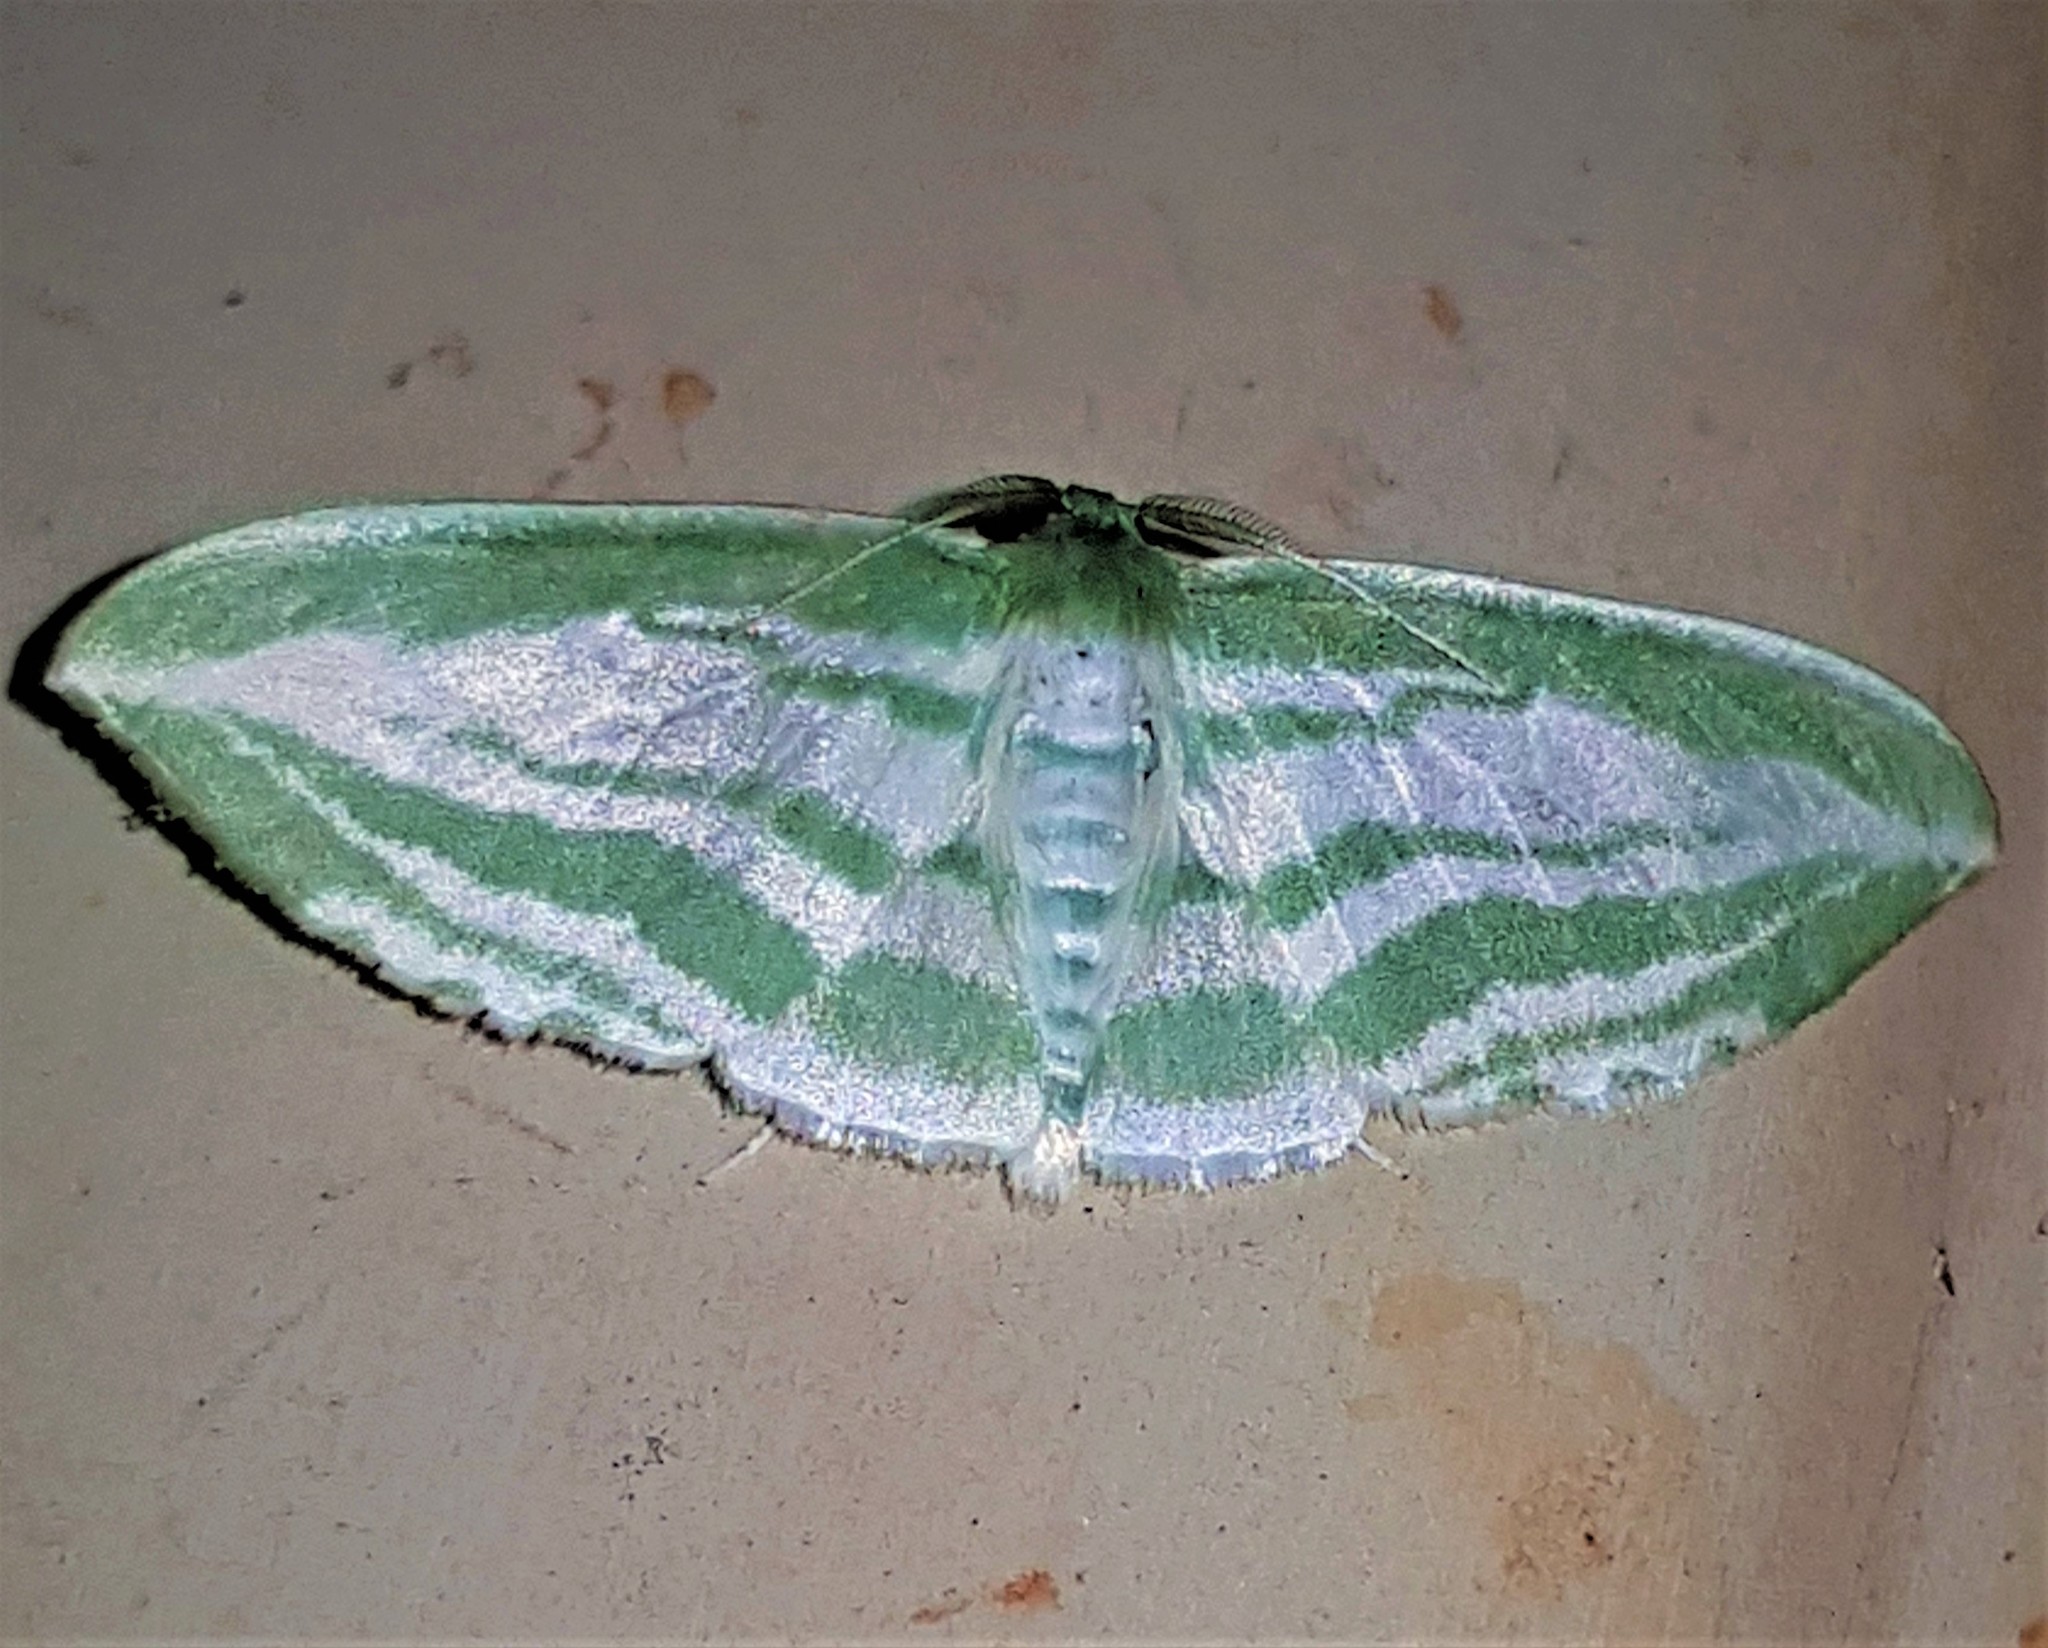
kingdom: Animalia
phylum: Arthropoda
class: Insecta
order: Lepidoptera
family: Geometridae
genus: Dyspteris
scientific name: Dyspteris egregiaria
